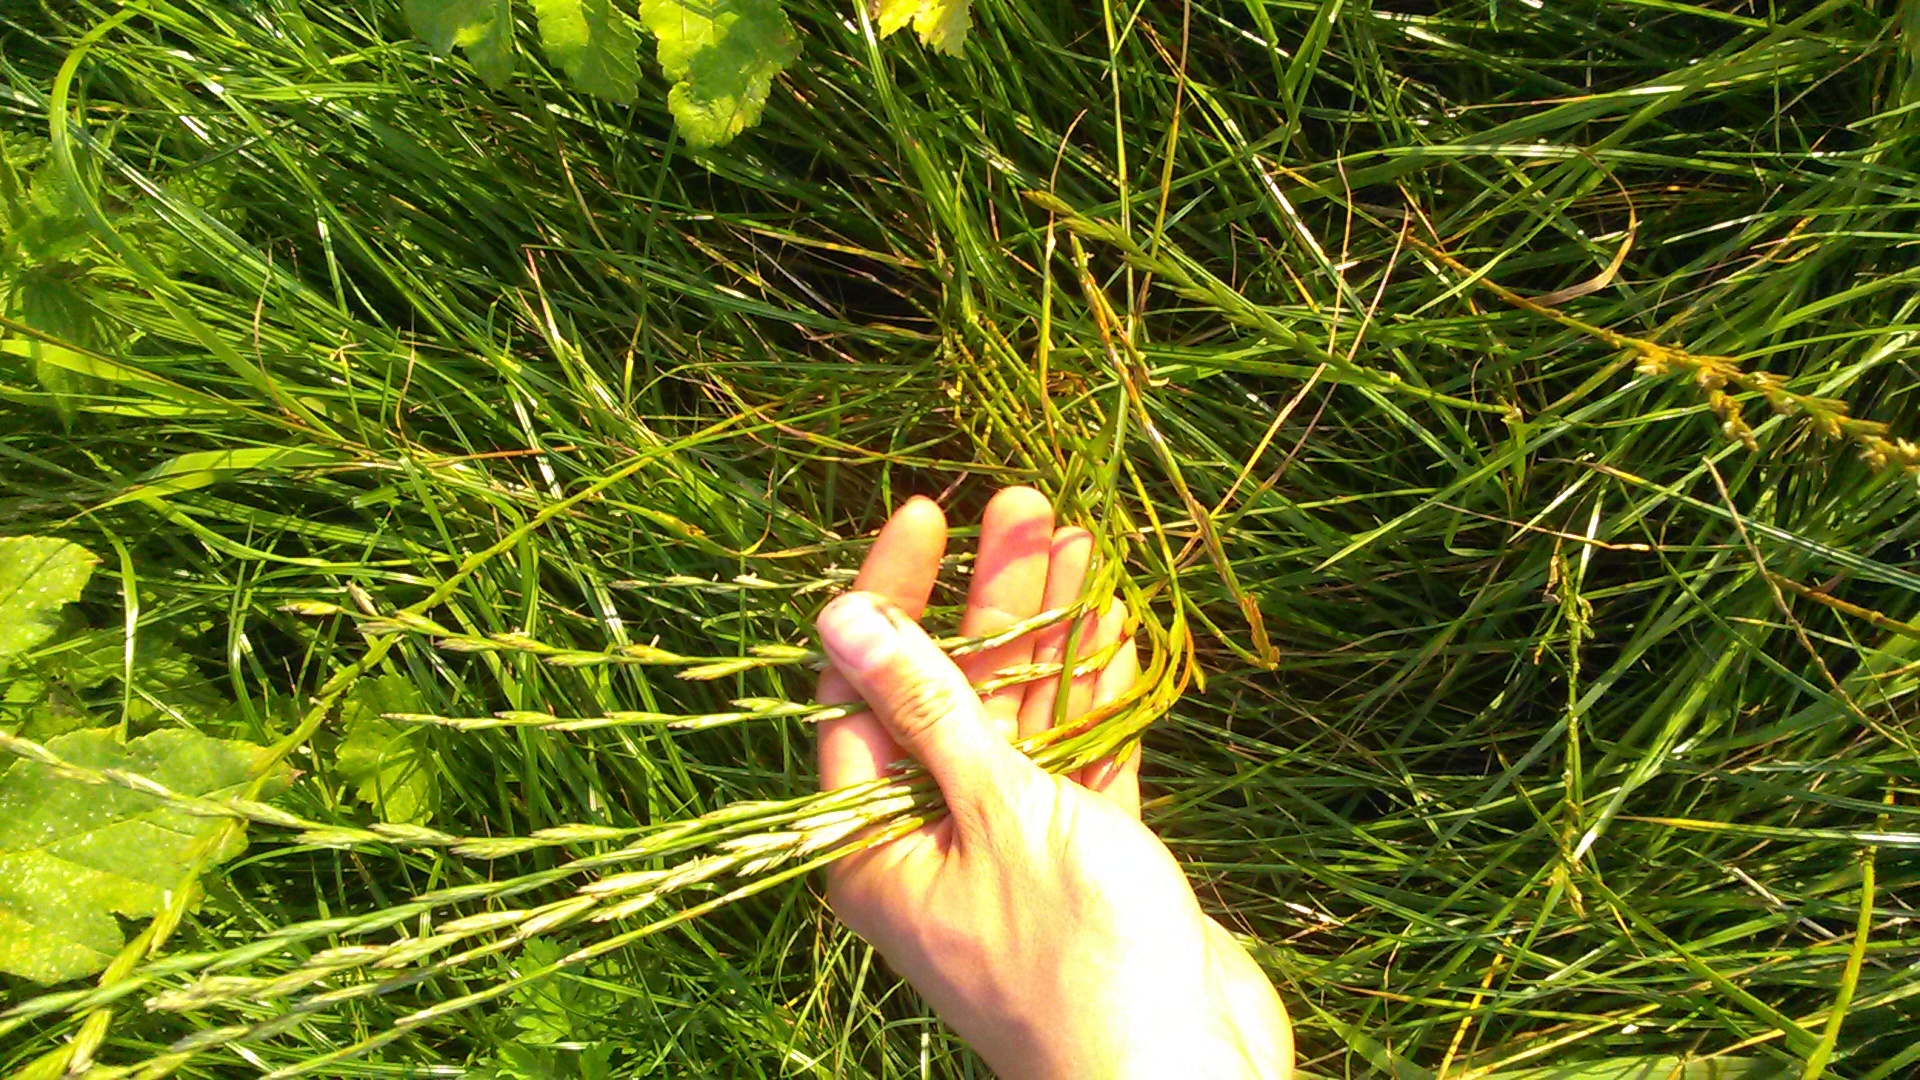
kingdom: Plantae
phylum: Tracheophyta
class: Liliopsida
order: Poales
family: Poaceae
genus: Lolium
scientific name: Lolium perenne
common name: Perennial ryegrass
